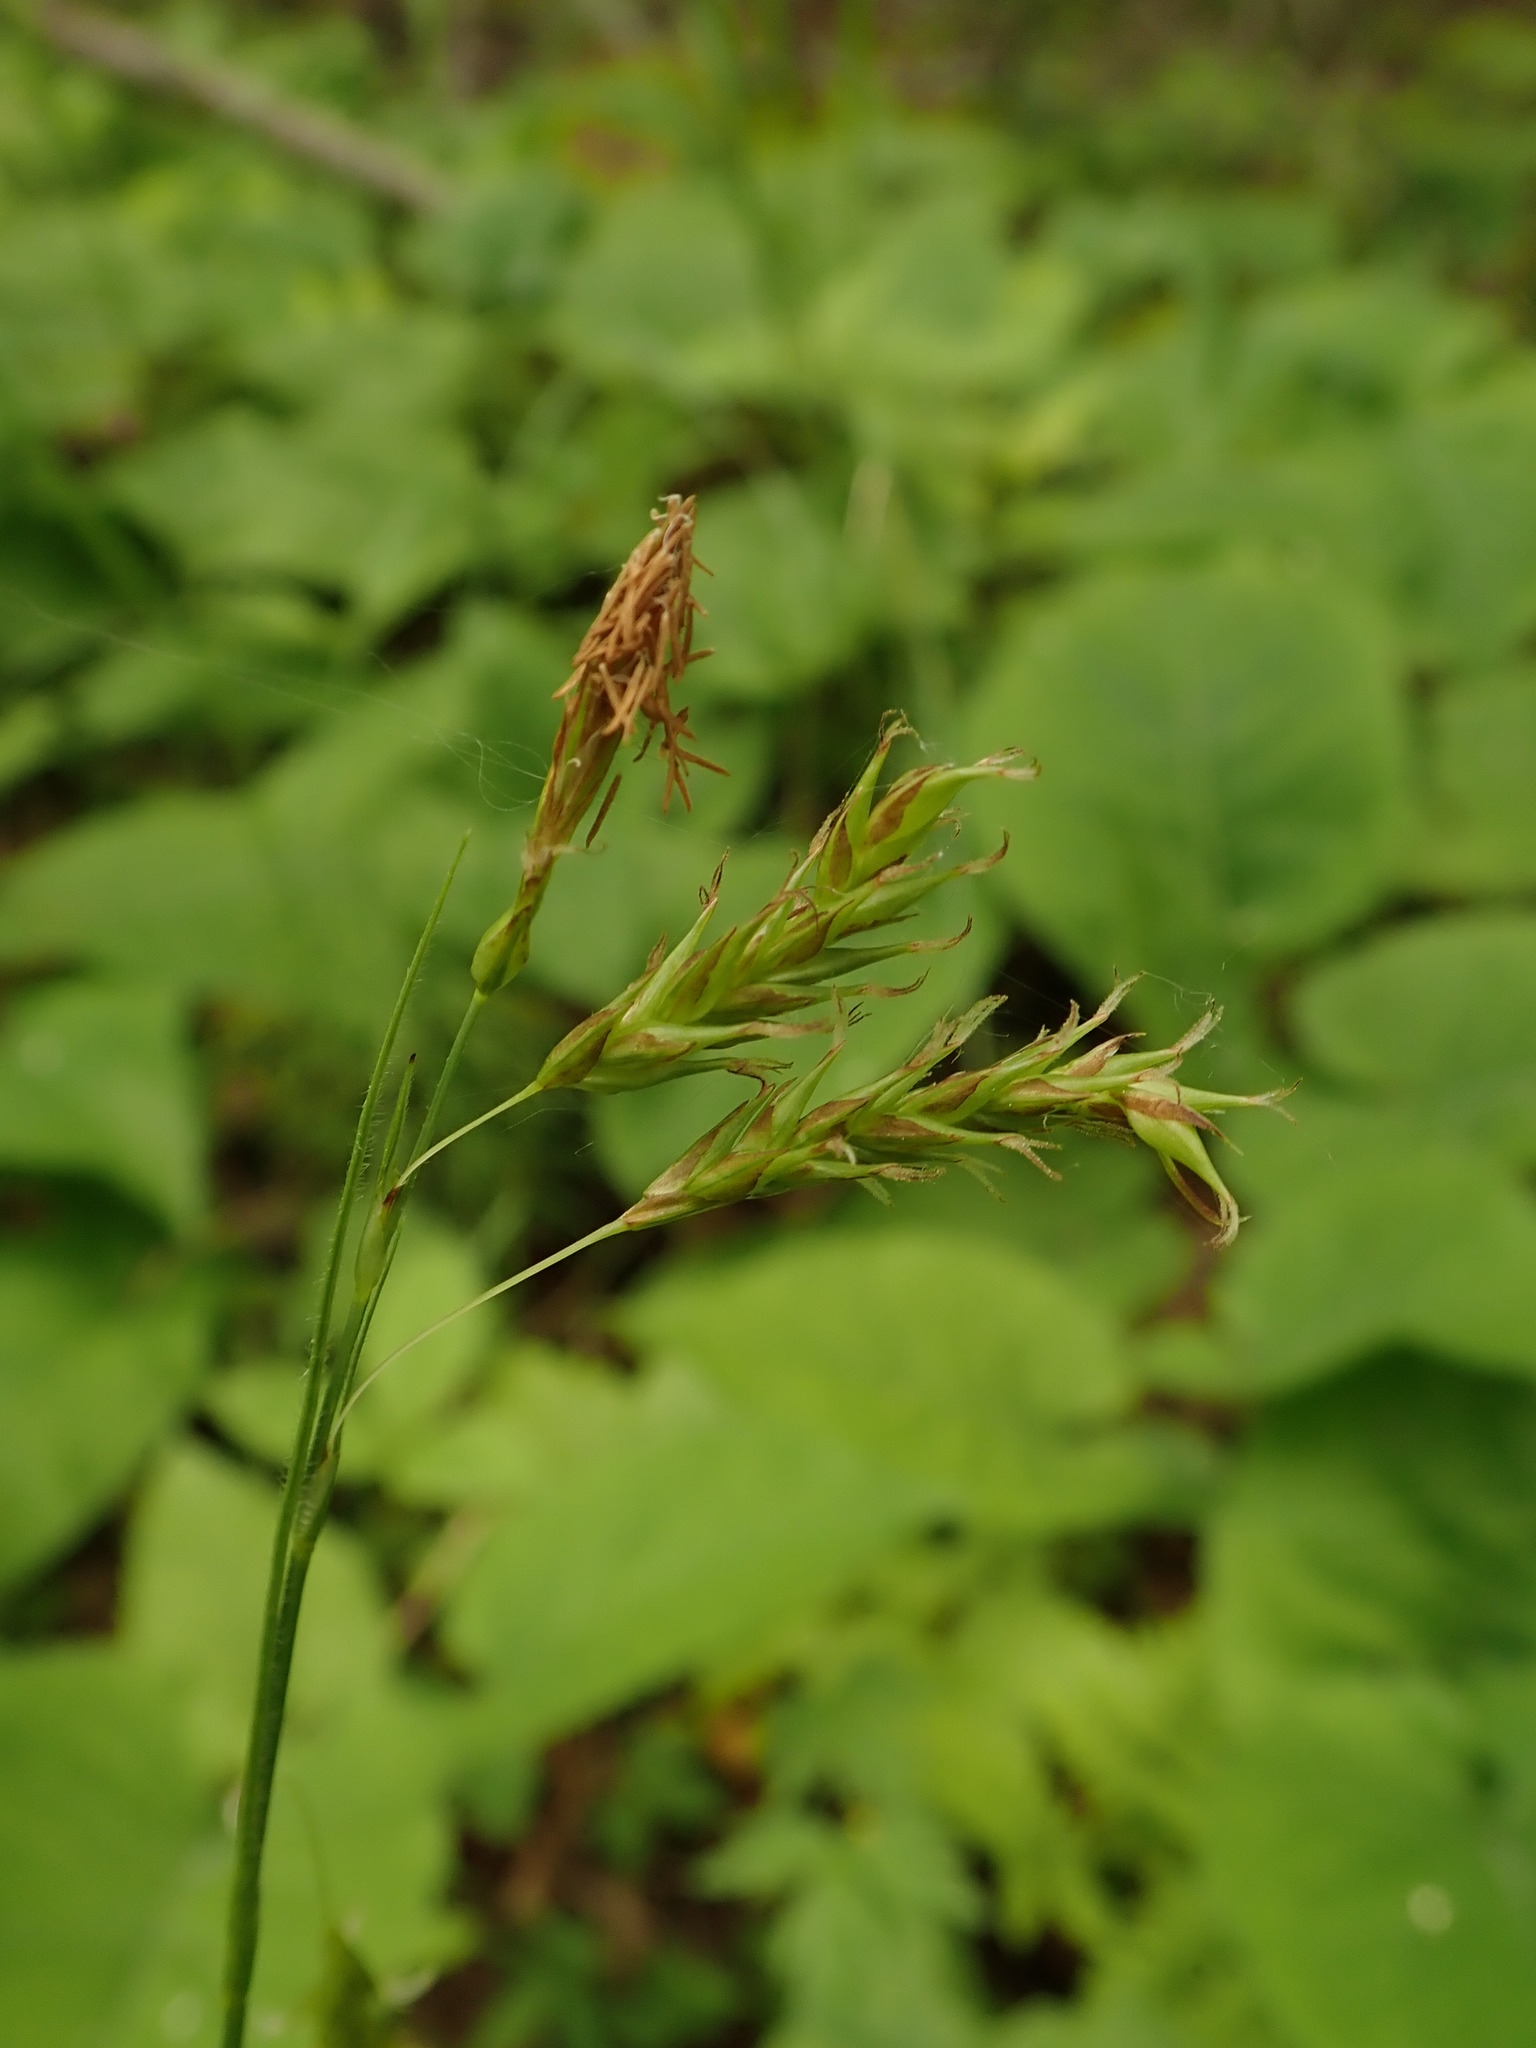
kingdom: Plantae
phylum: Tracheophyta
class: Liliopsida
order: Poales
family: Cyperaceae
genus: Carex
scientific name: Carex castanea
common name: Chestnut sedge
